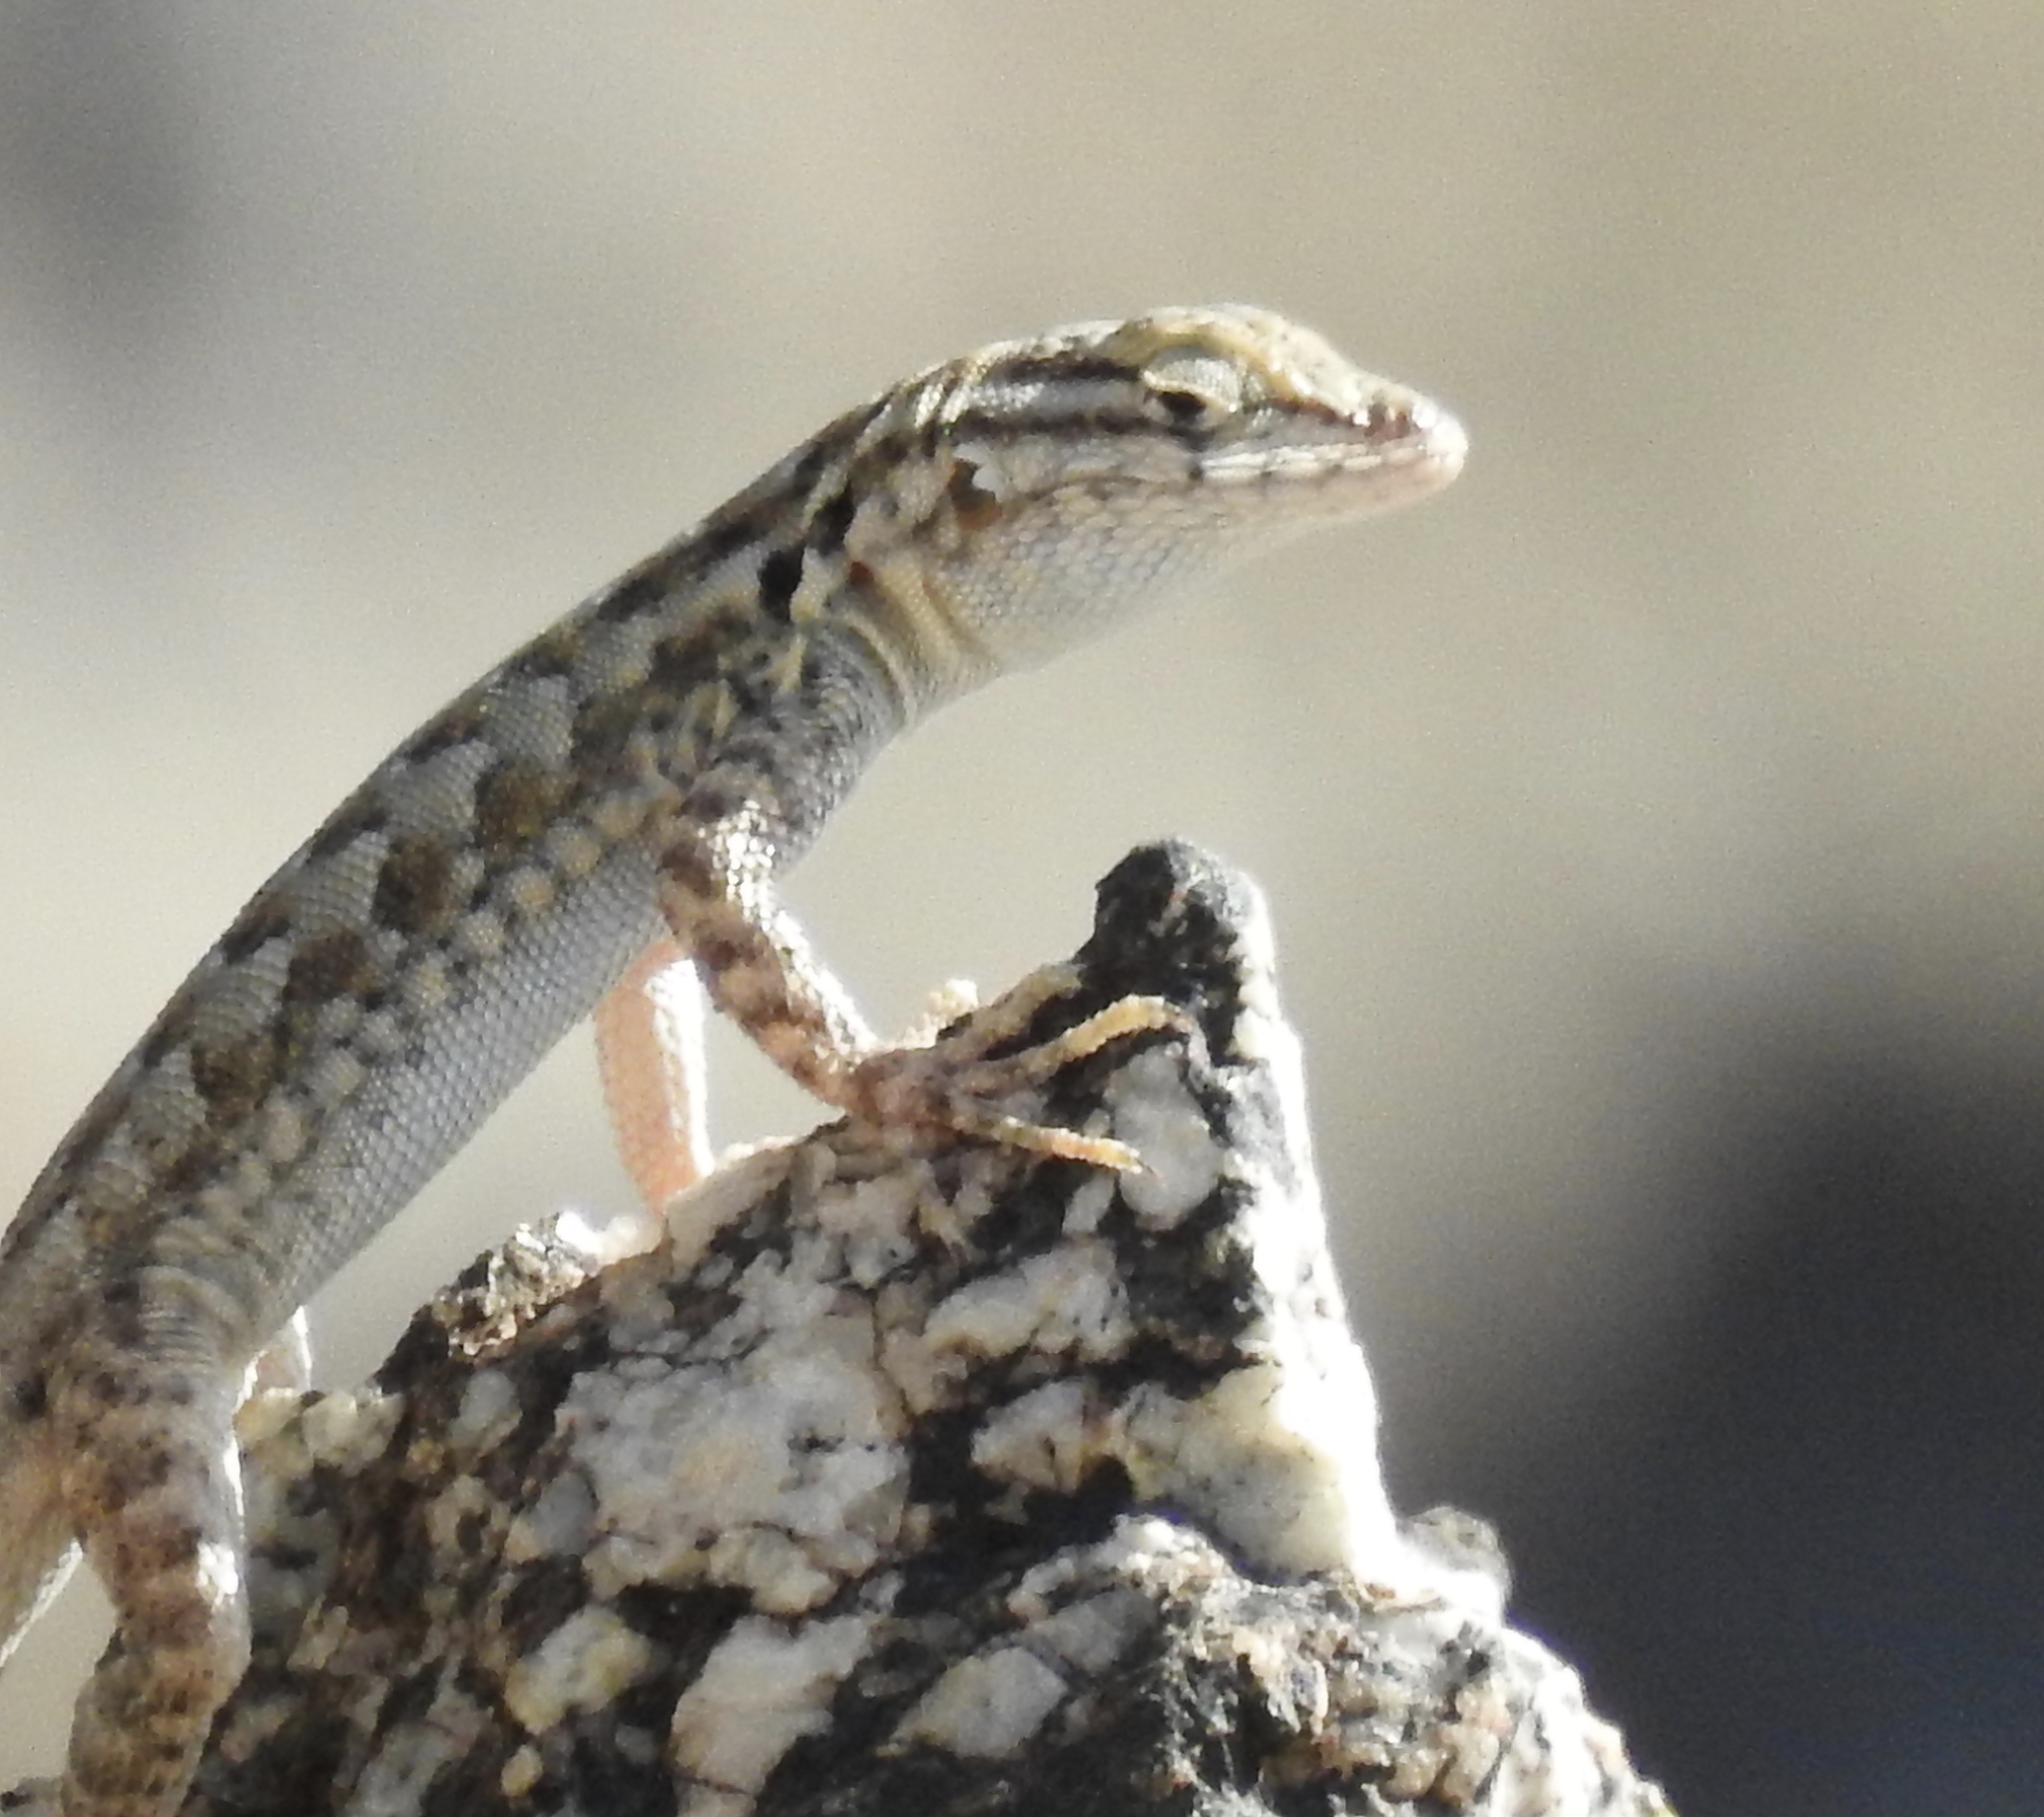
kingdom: Animalia
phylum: Chordata
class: Squamata
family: Phrynosomatidae
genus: Uta
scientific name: Uta stansburiana
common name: Side-blotched lizard
